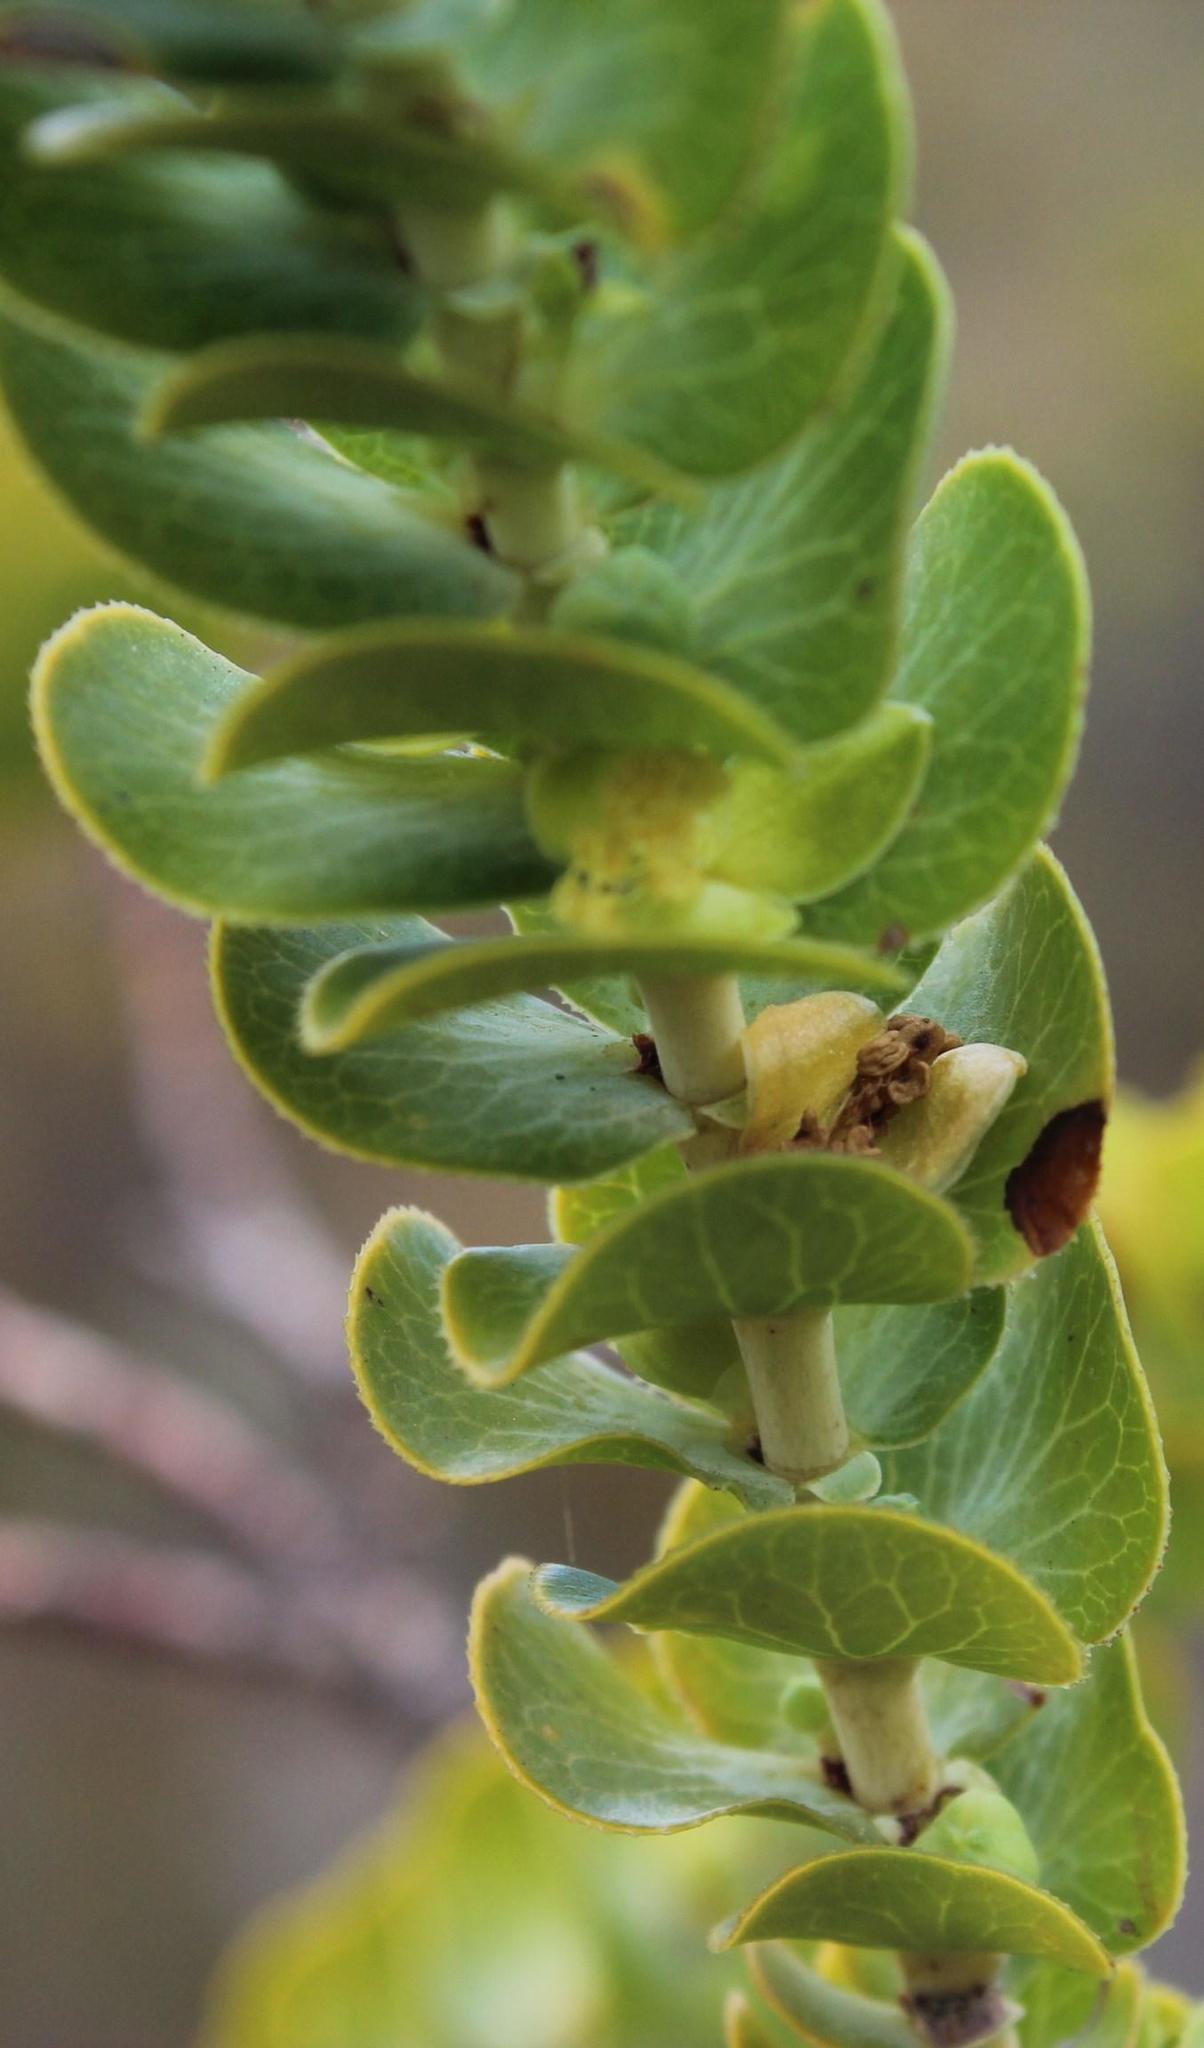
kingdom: Plantae
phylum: Tracheophyta
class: Magnoliopsida
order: Rosales
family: Rosaceae
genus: Cliffortia
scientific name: Cliffortia crenata
